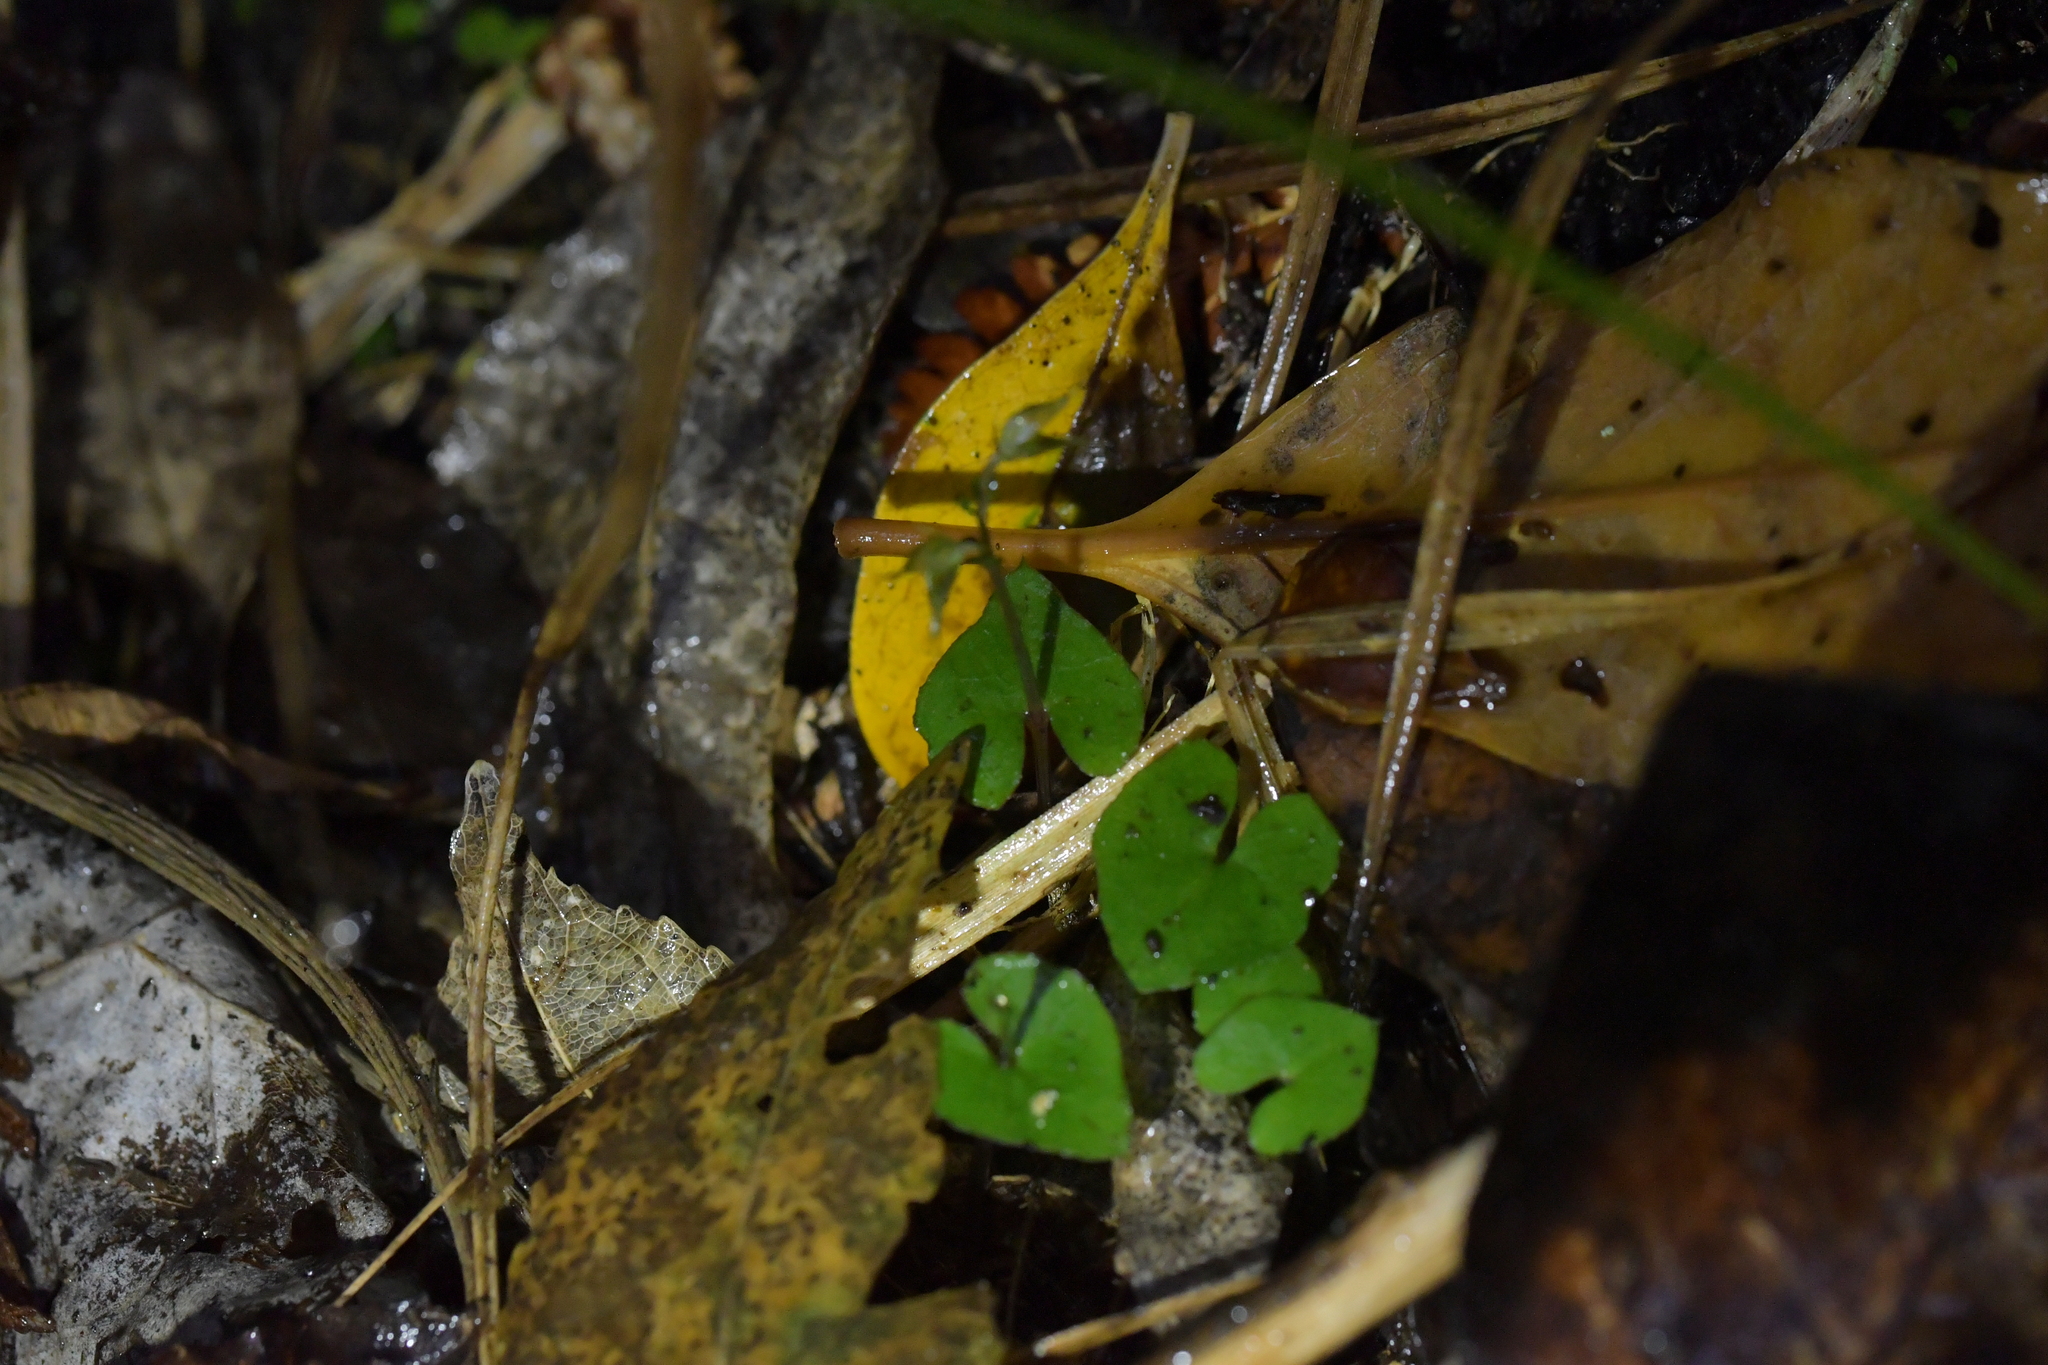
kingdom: Plantae
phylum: Tracheophyta
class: Liliopsida
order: Asparagales
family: Orchidaceae
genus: Acianthus
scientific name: Acianthus sinclairii
